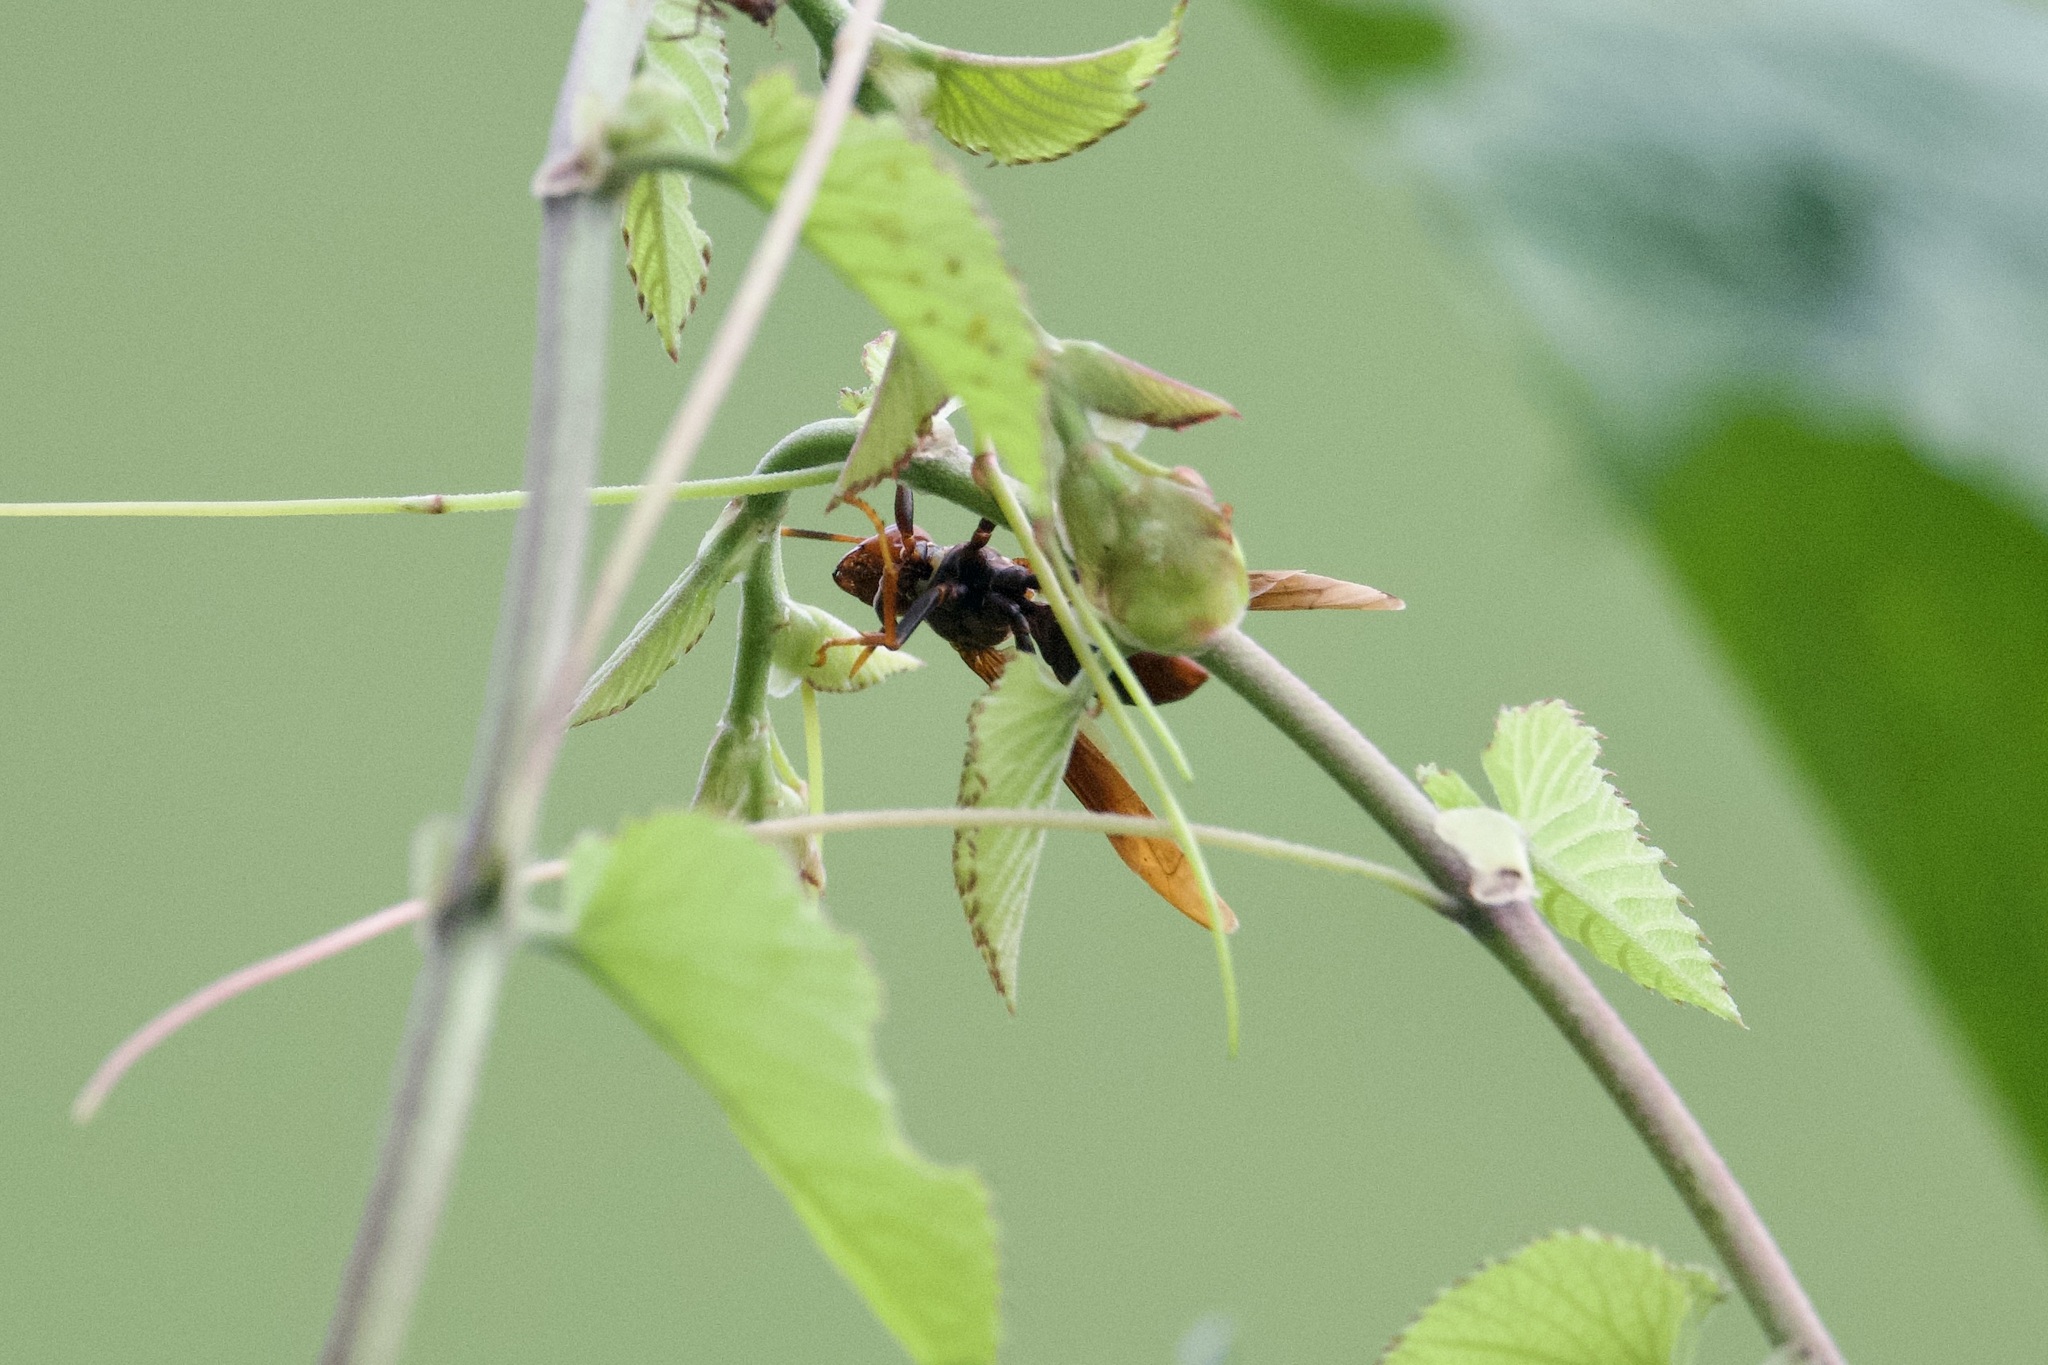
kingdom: Animalia
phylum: Arthropoda
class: Insecta
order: Hymenoptera
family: Eumenidae
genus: Polistes
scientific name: Polistes lanio
